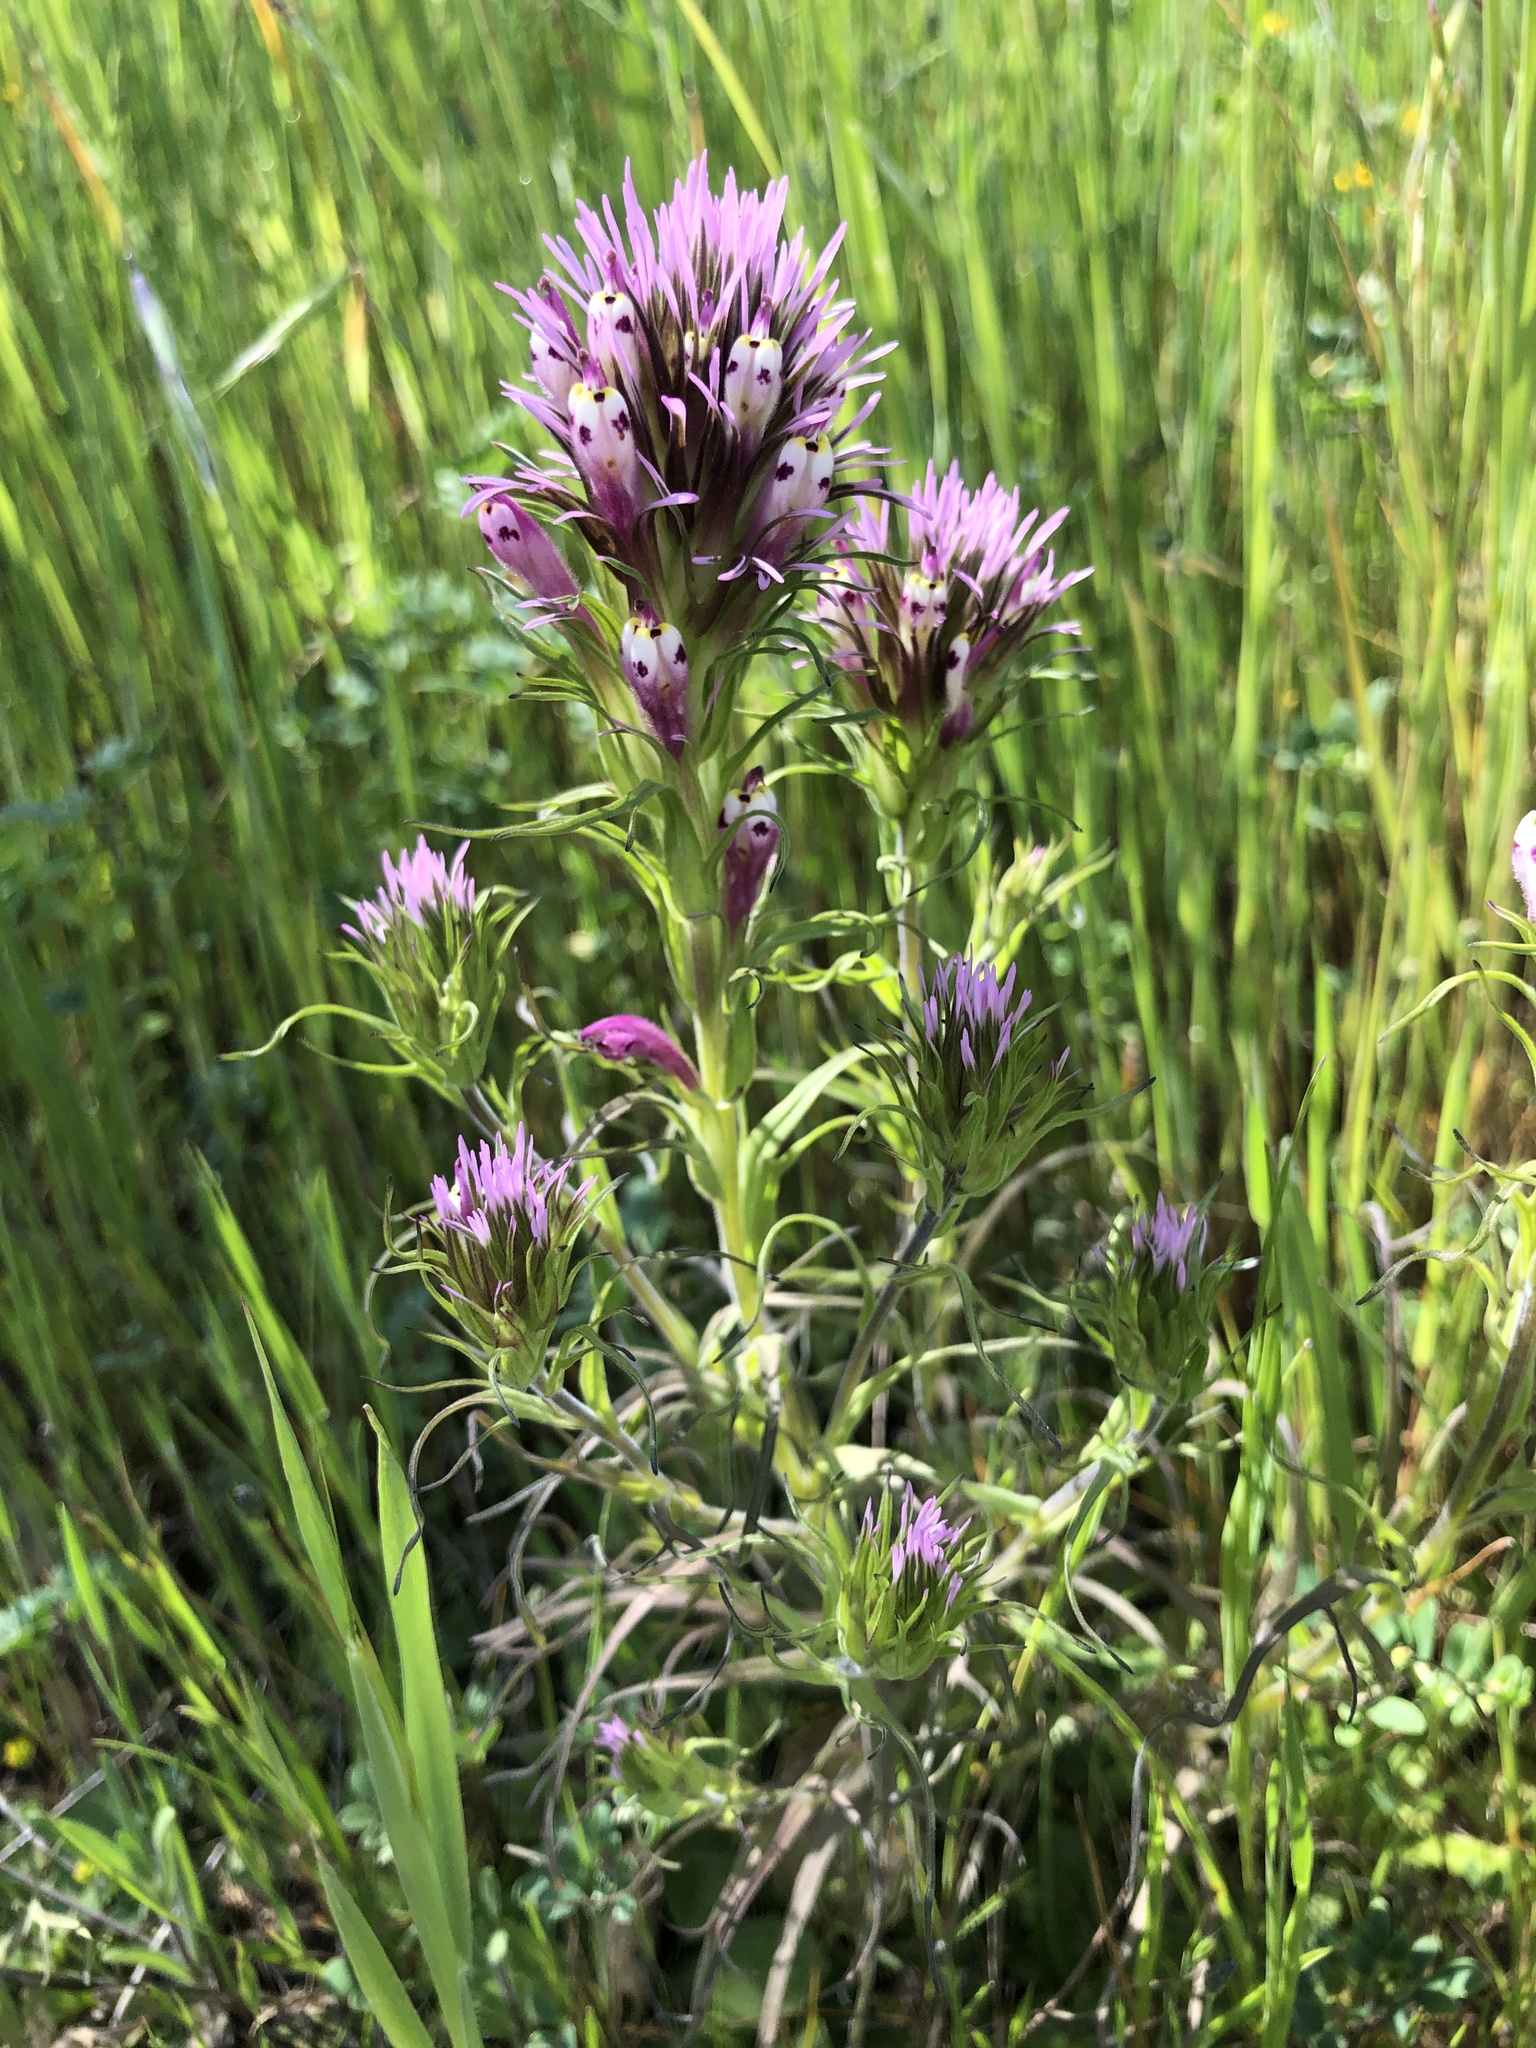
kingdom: Plantae
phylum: Tracheophyta
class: Magnoliopsida
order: Lamiales
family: Orobanchaceae
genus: Castilleja
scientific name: Castilleja densiflora
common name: Dense-flower indian paintbrush
